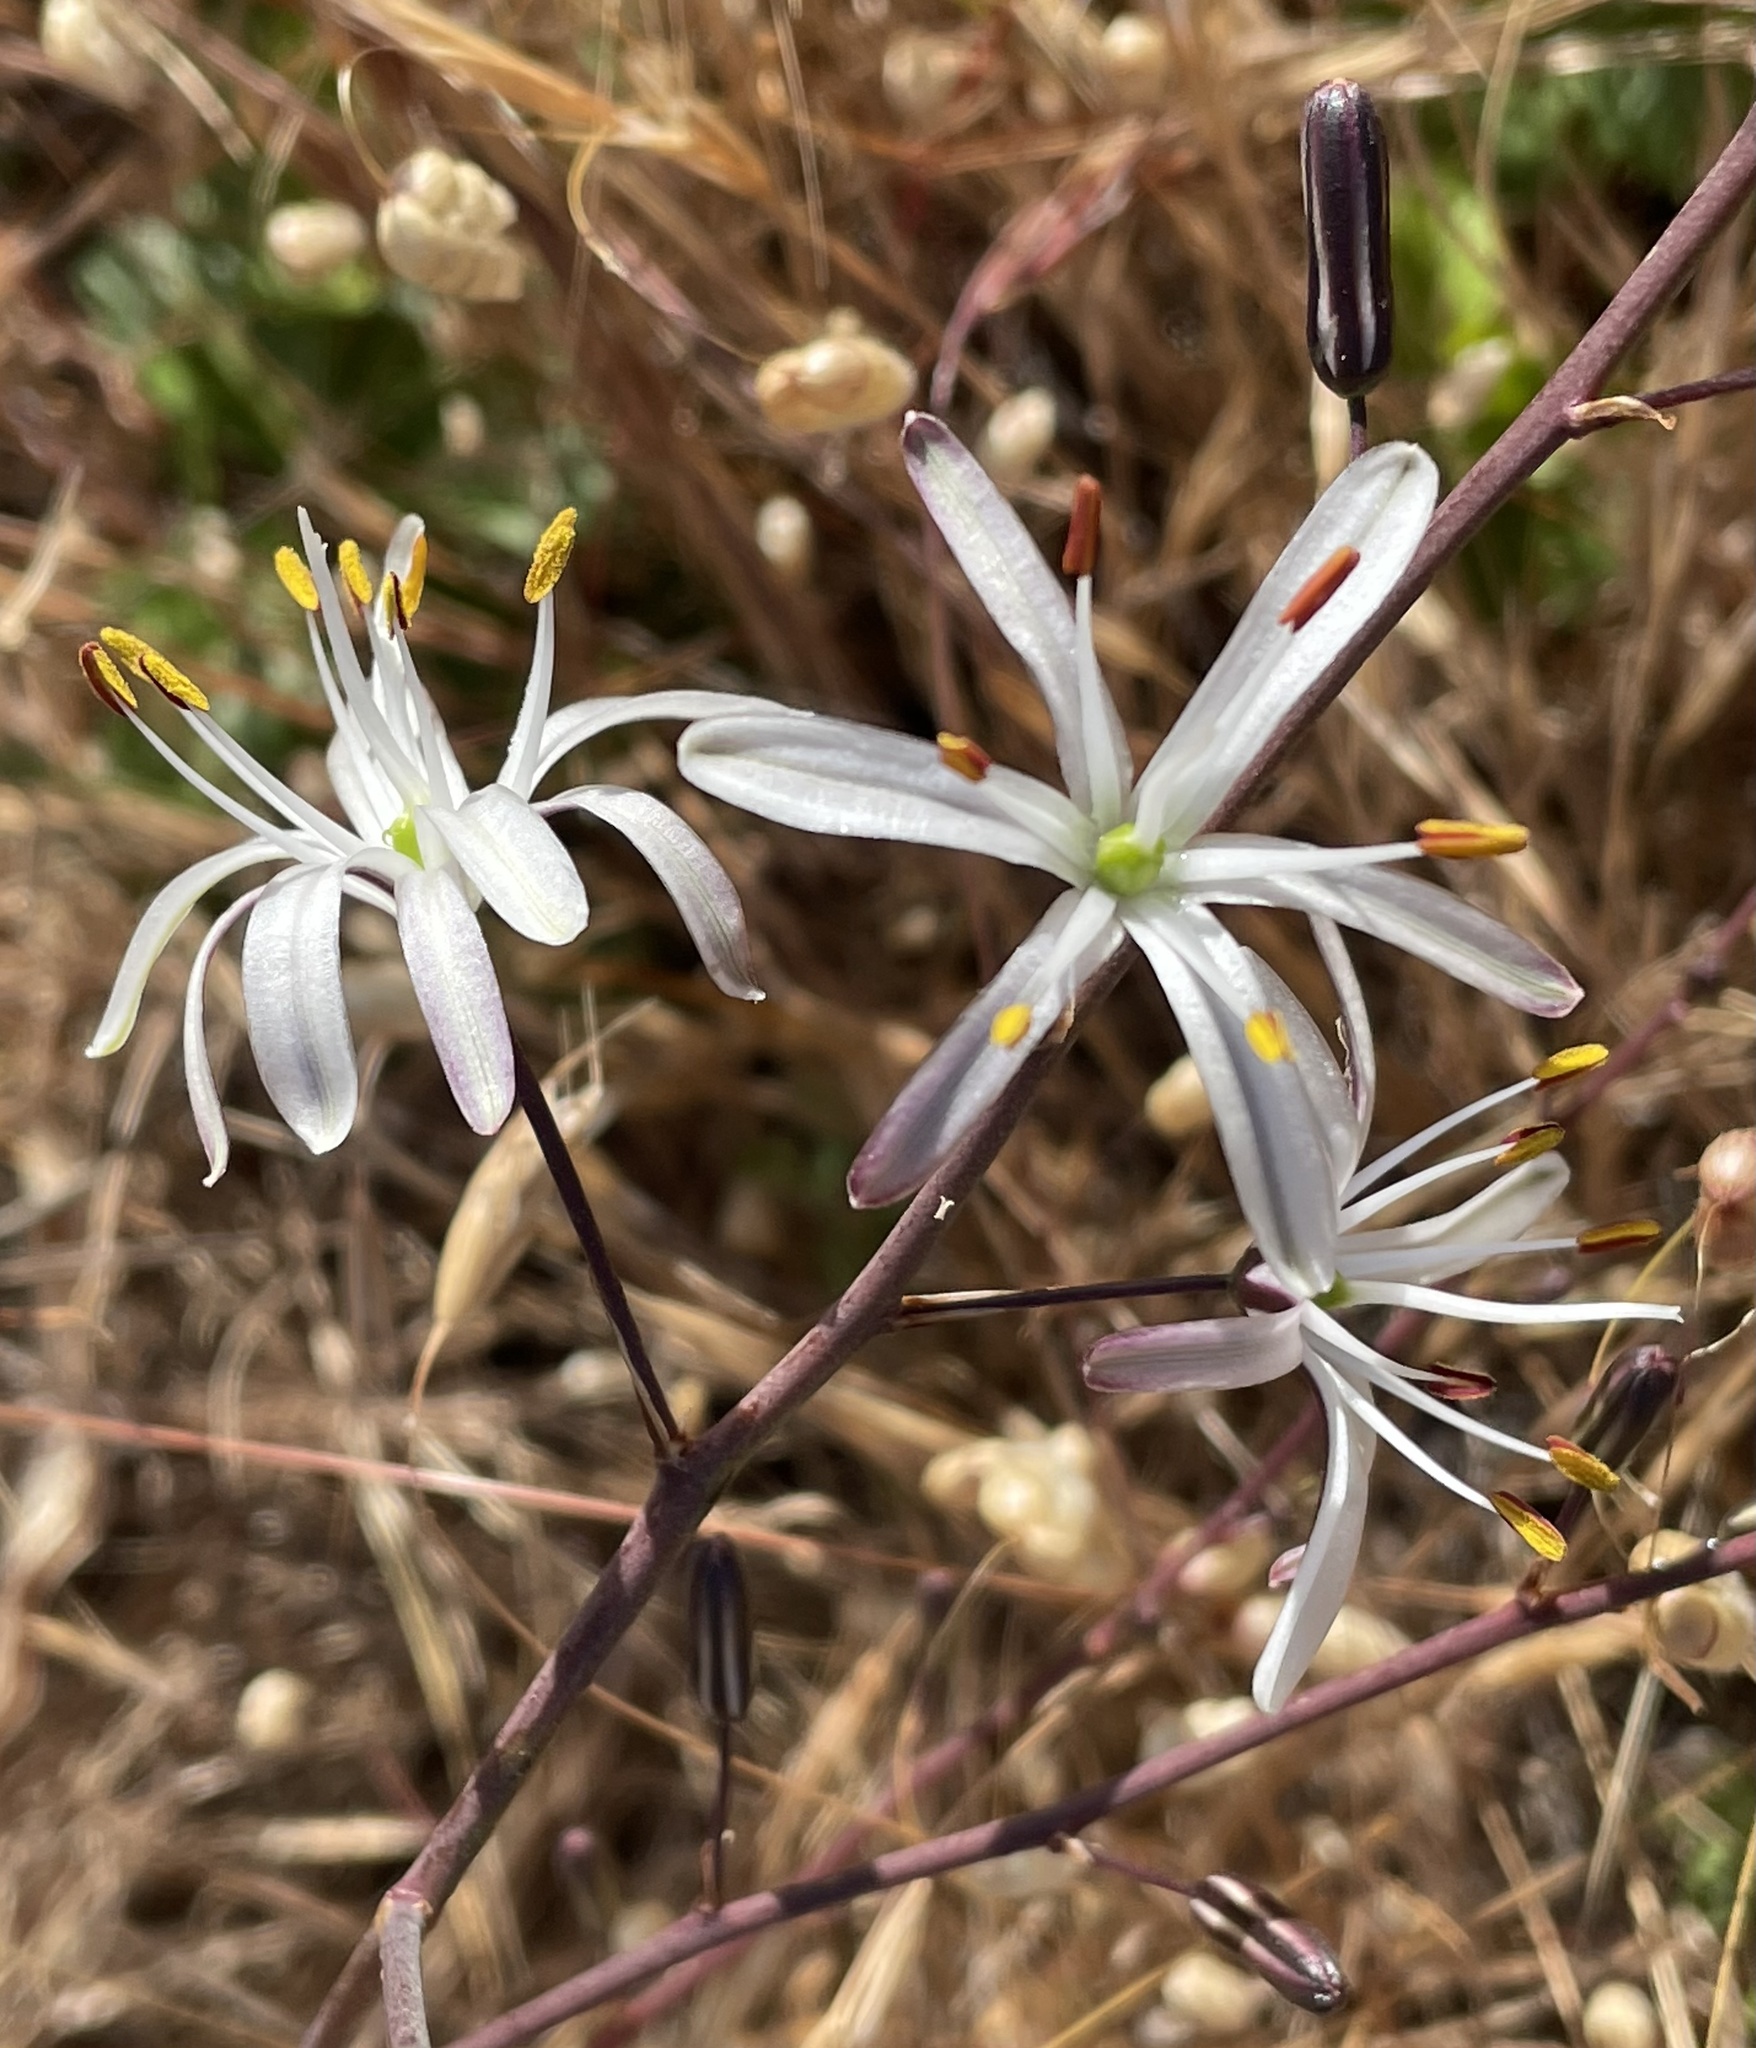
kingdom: Plantae
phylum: Tracheophyta
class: Liliopsida
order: Asparagales
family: Asparagaceae
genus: Chlorogalum
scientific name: Chlorogalum pomeridianum
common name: Amole
